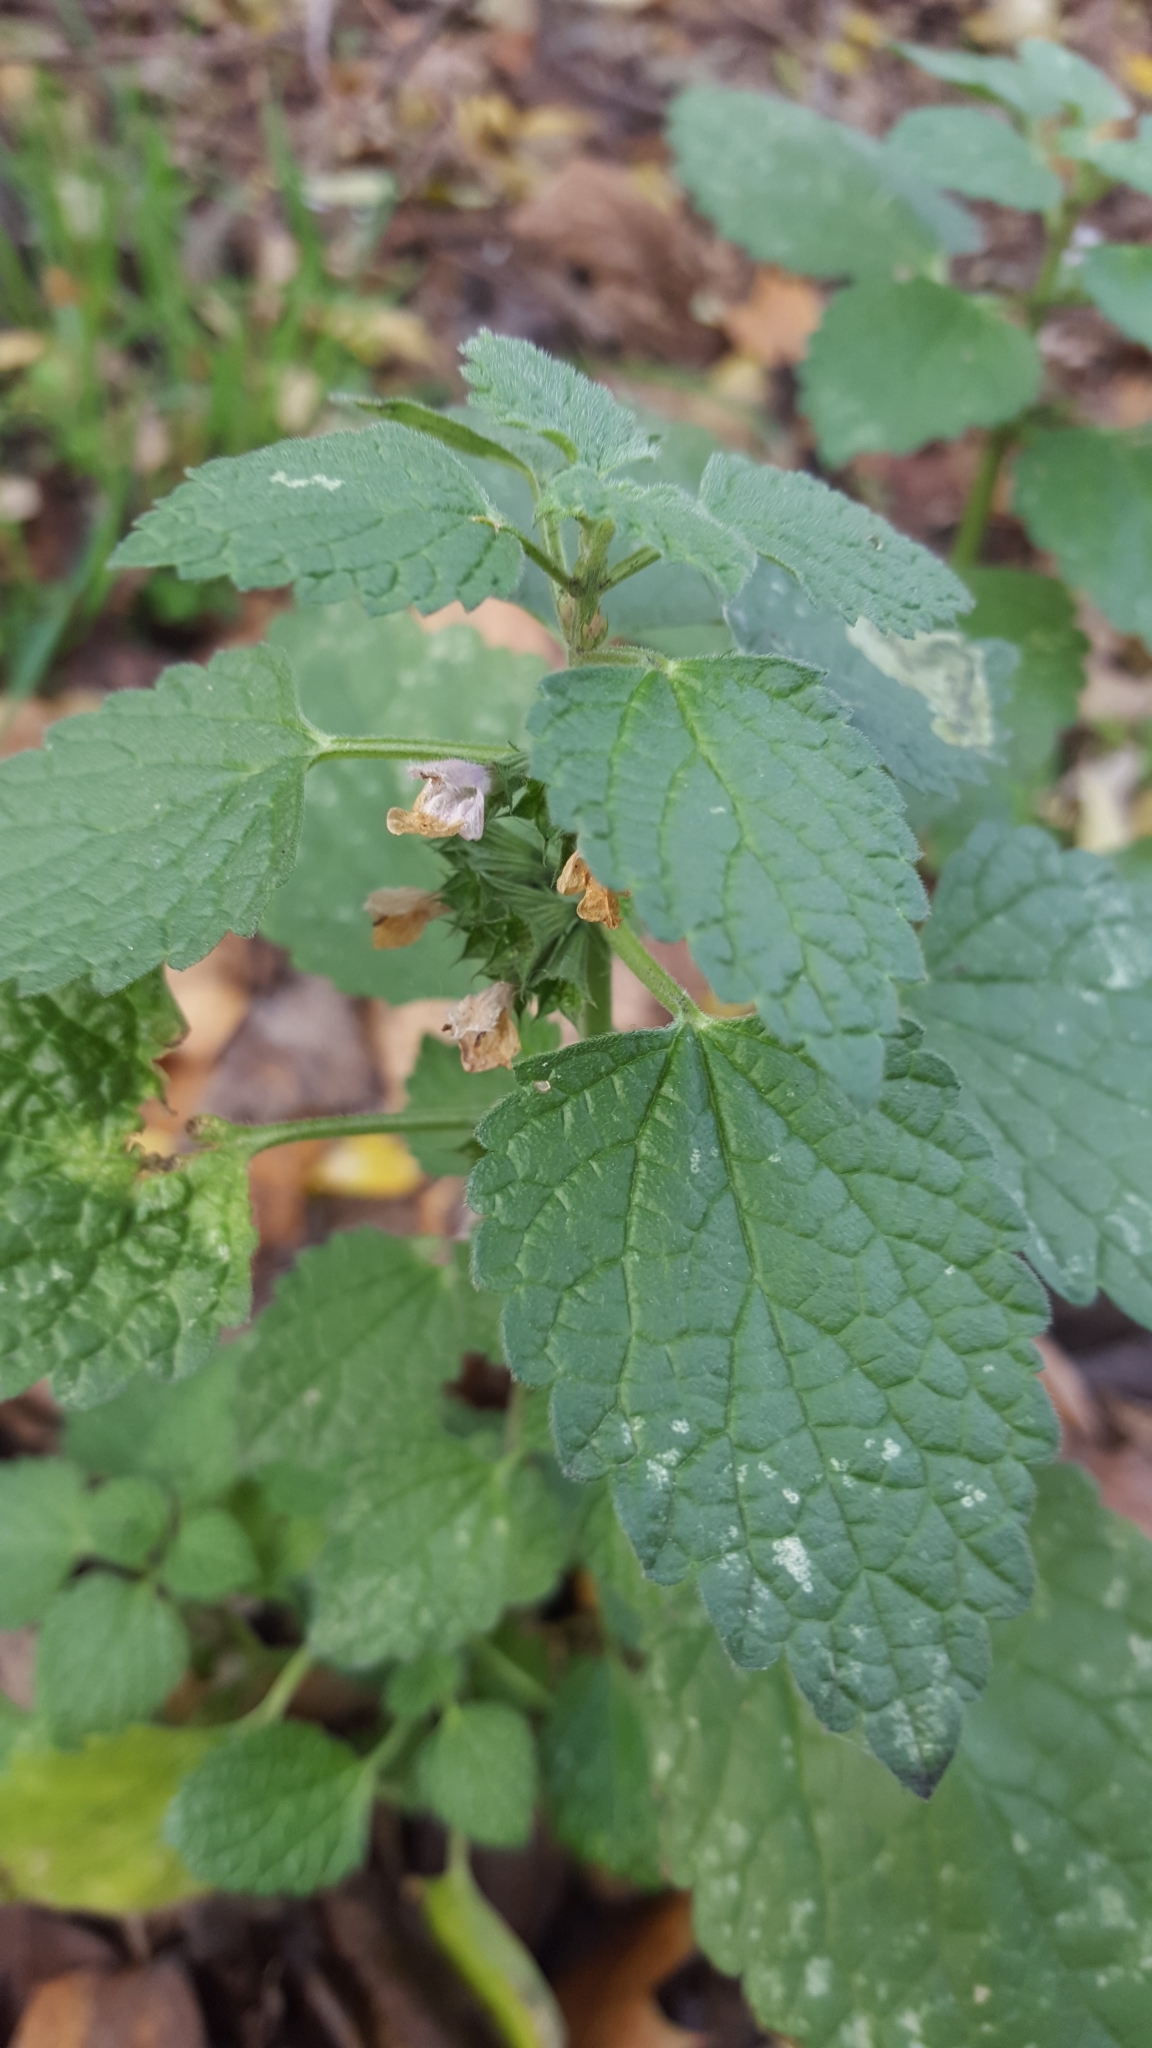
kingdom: Plantae
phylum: Tracheophyta
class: Magnoliopsida
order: Lamiales
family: Lamiaceae
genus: Ballota
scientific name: Ballota nigra
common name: Black horehound
